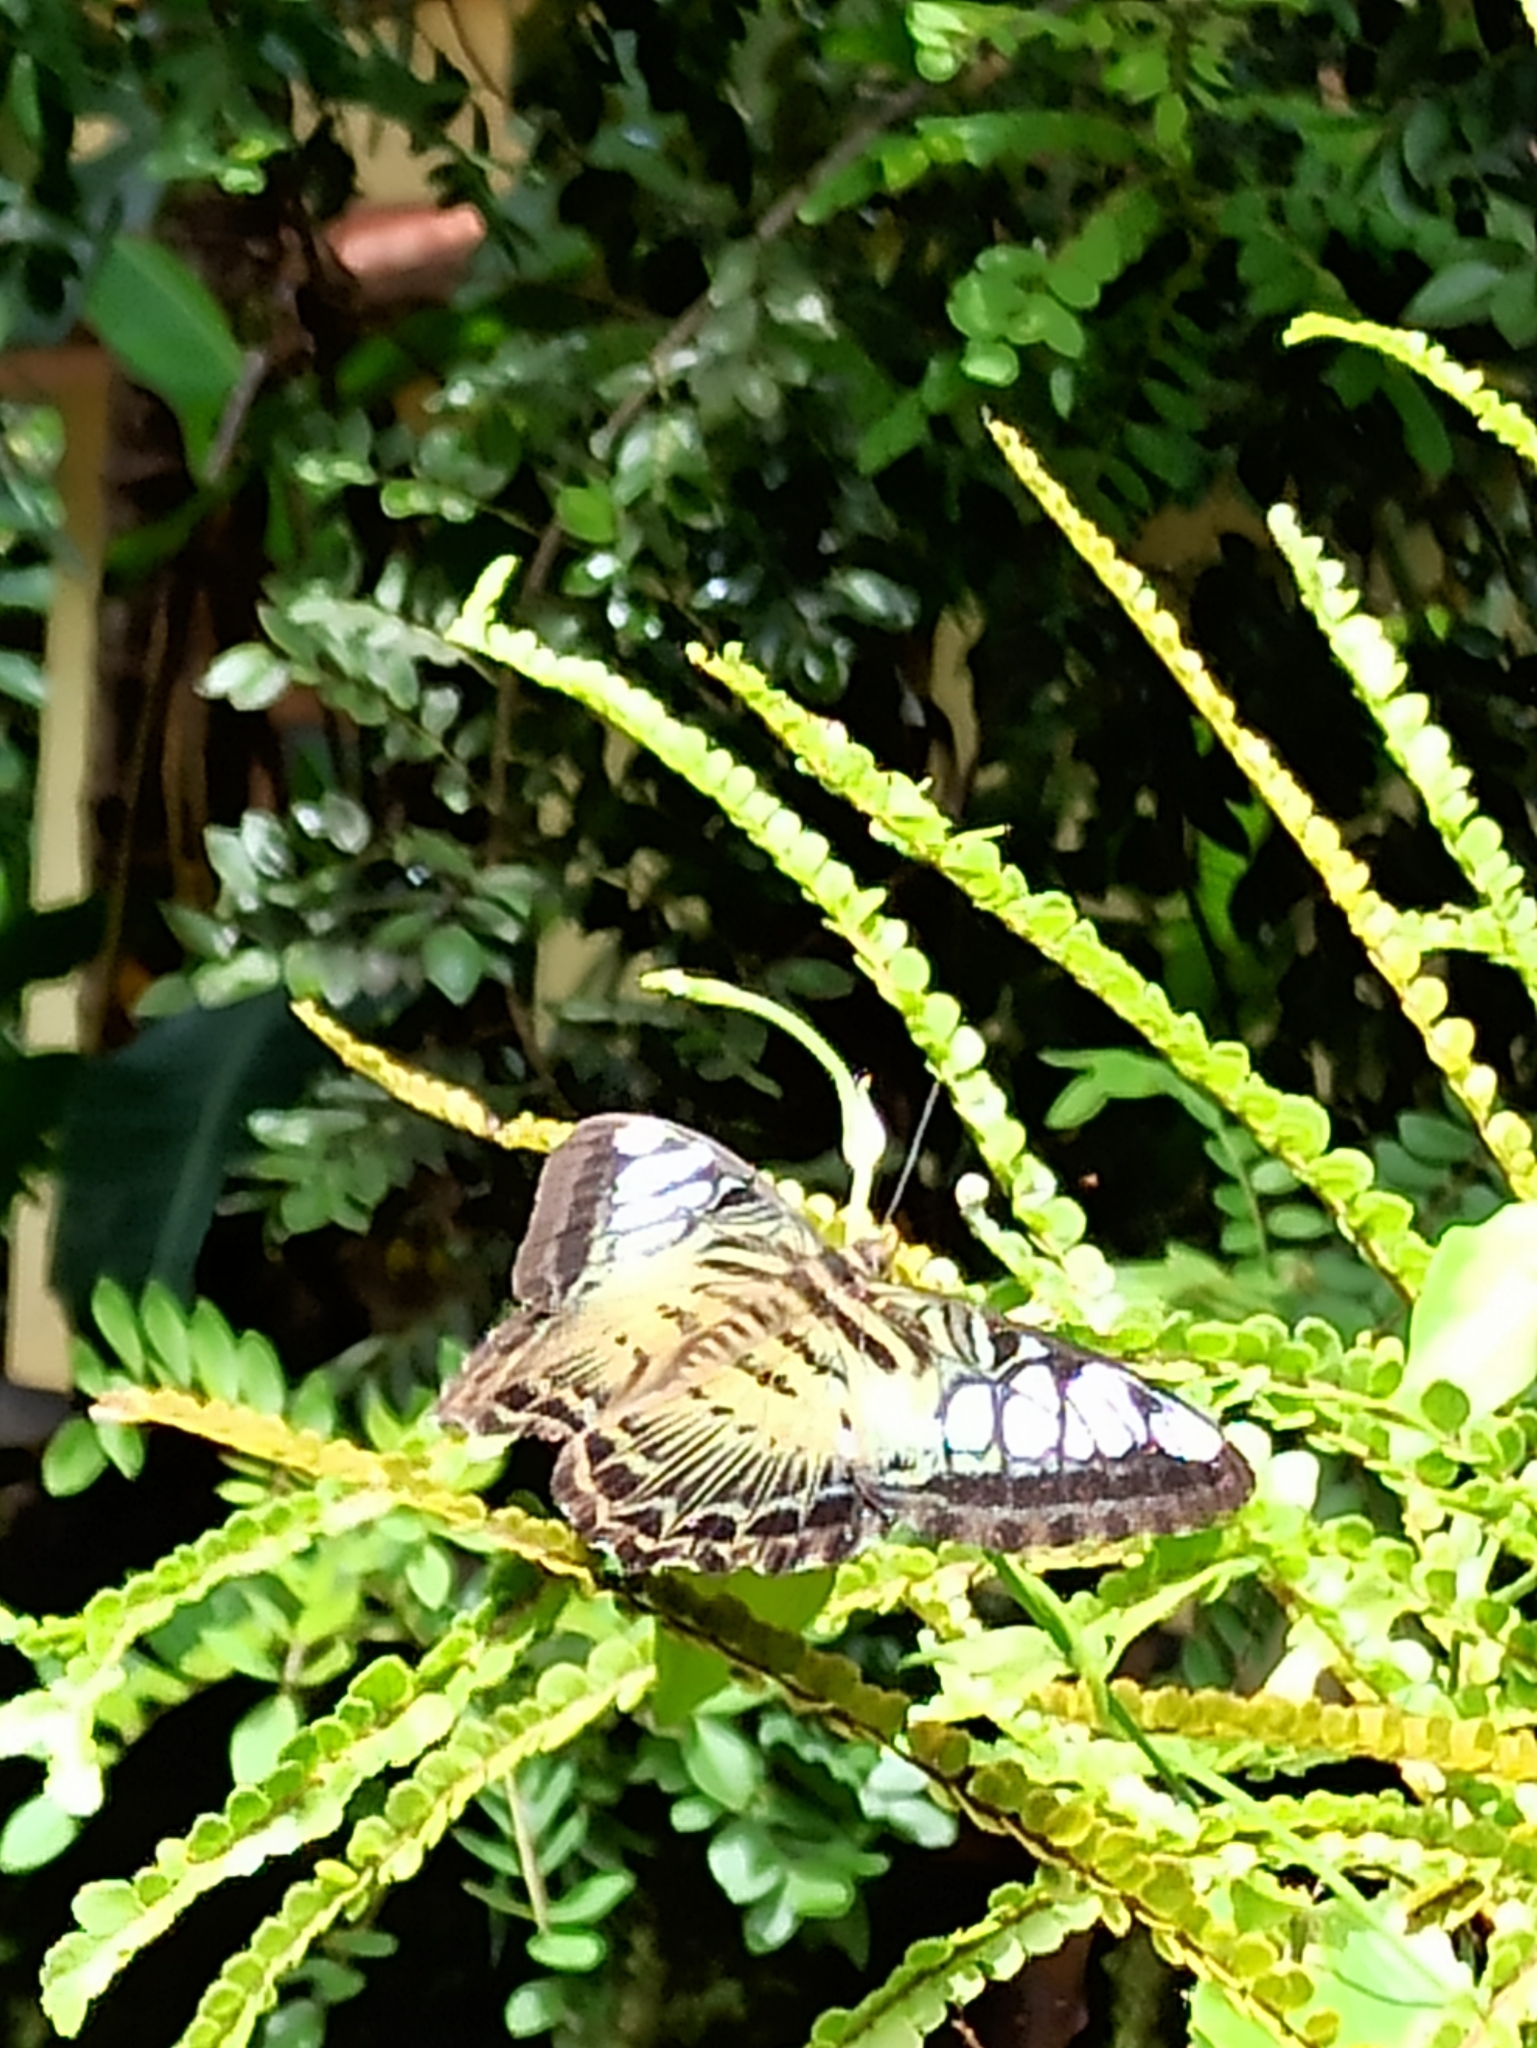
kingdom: Animalia
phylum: Arthropoda
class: Insecta
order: Lepidoptera
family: Nymphalidae
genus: Kallima
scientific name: Kallima sylvia
